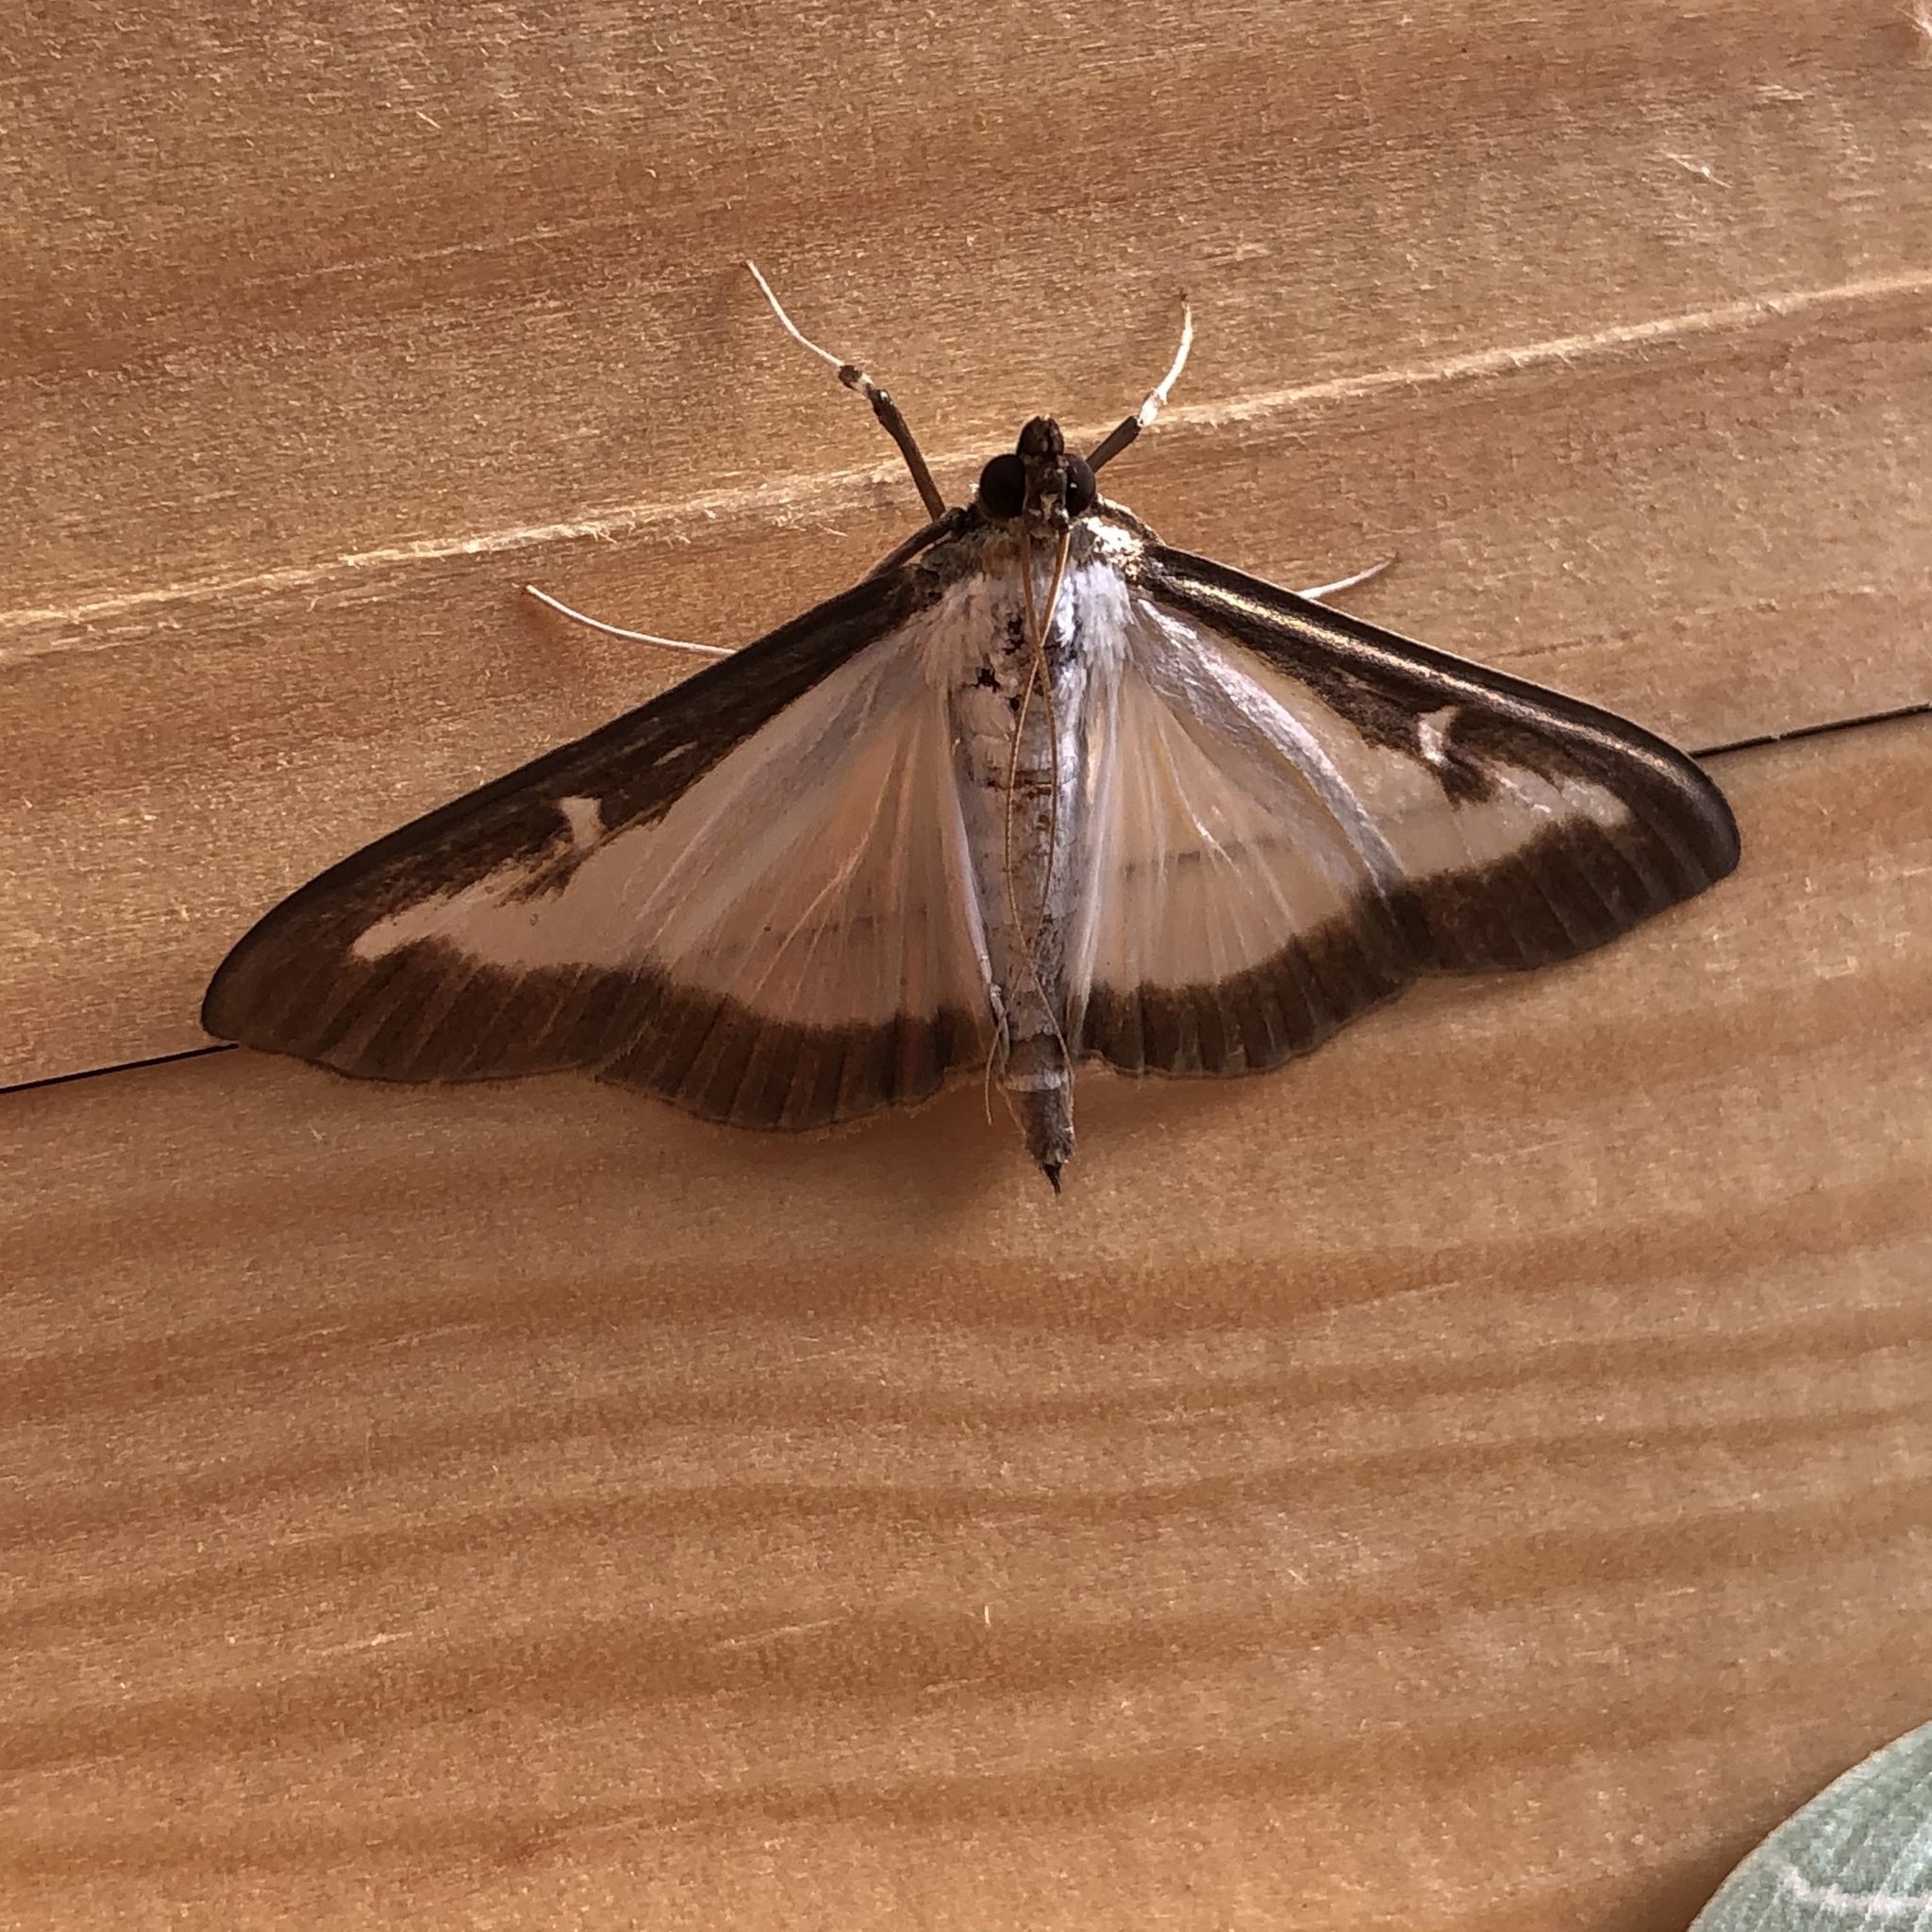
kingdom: Animalia
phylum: Arthropoda
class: Insecta
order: Lepidoptera
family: Crambidae
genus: Cydalima
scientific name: Cydalima perspectalis
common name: Box tree moth
